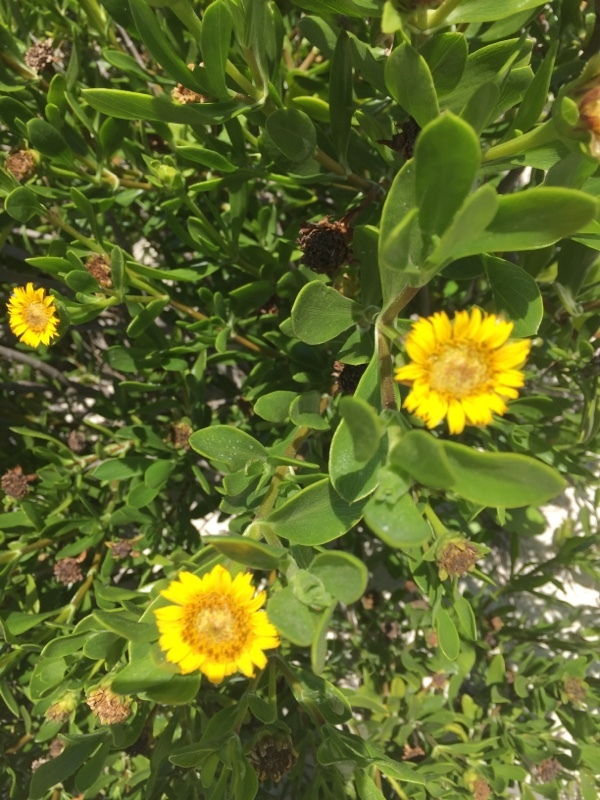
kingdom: Plantae
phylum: Tracheophyta
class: Magnoliopsida
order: Asterales
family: Asteraceae
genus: Borrichia
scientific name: Borrichia arborescens
